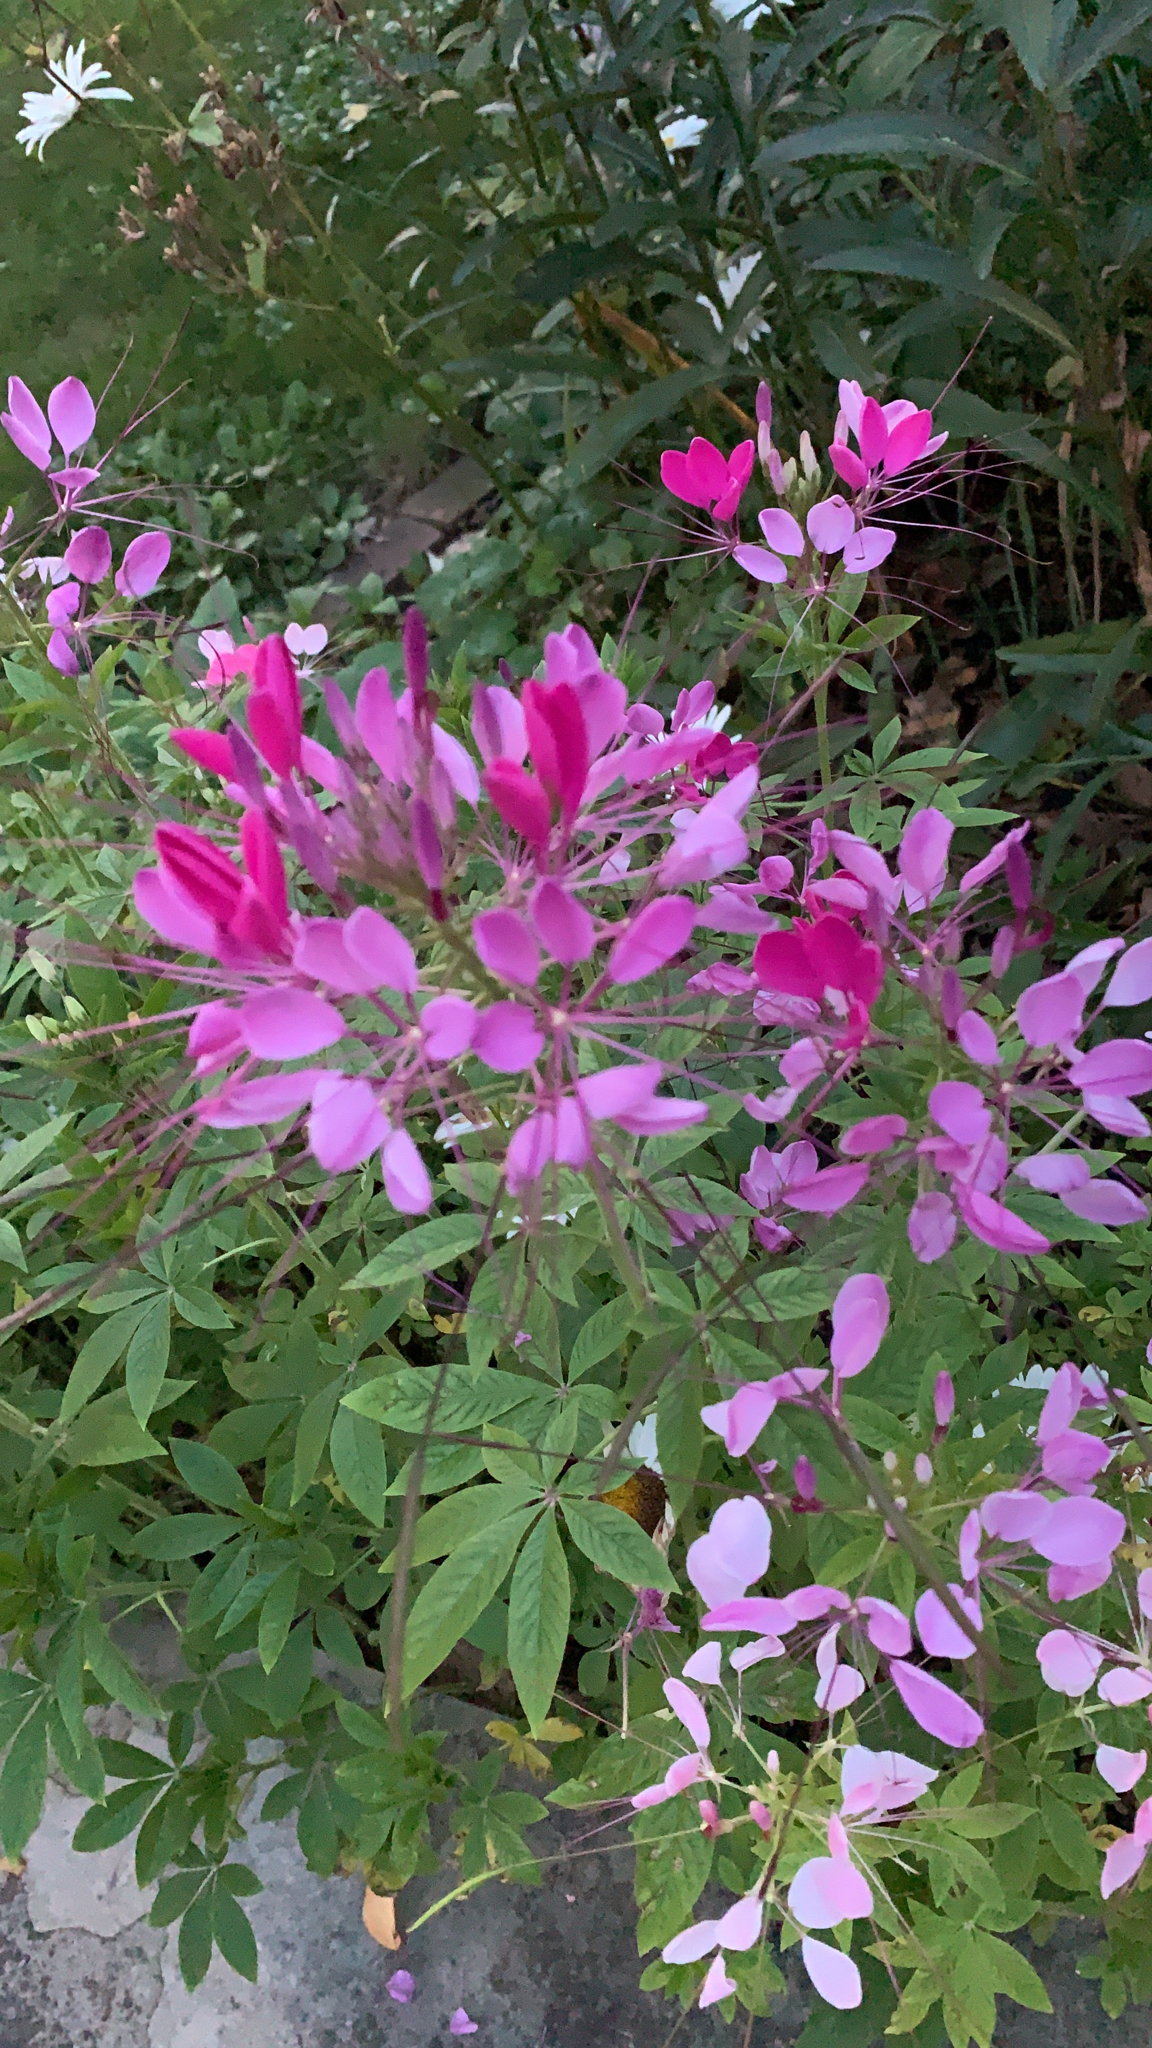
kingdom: Plantae
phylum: Tracheophyta
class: Magnoliopsida
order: Brassicales
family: Cleomaceae
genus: Tarenaya
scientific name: Tarenaya houtteana
